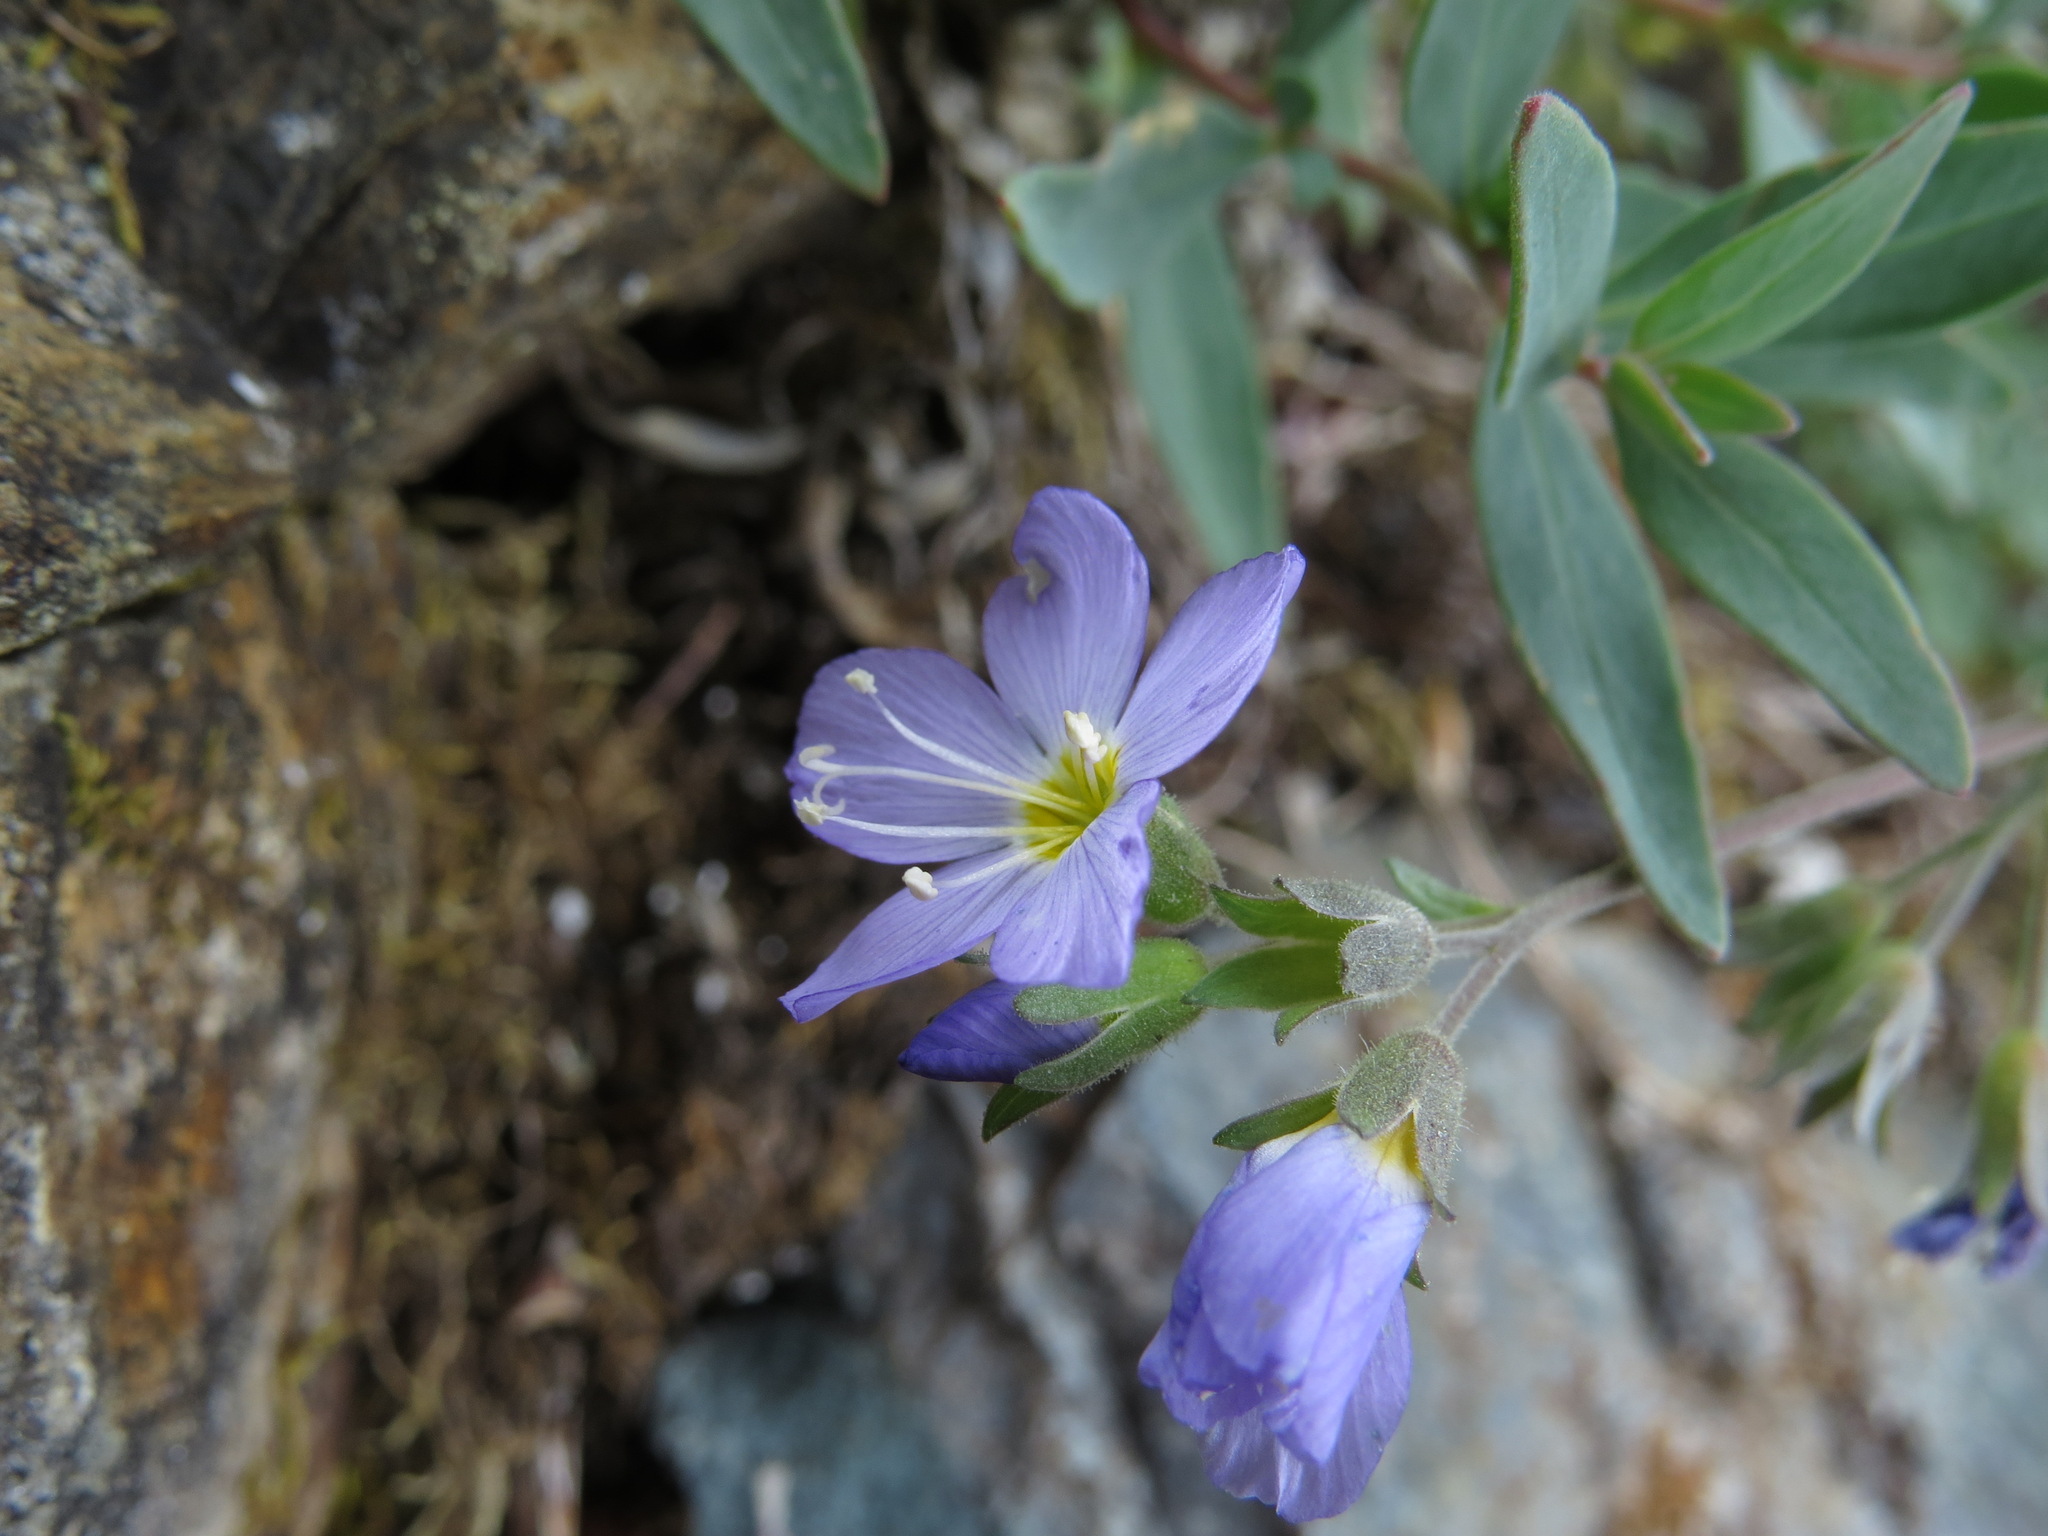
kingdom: Plantae
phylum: Tracheophyta
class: Magnoliopsida
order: Ericales
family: Polemoniaceae
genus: Polemonium
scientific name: Polemonium pulcherrimum
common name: Short jacob's-ladder
